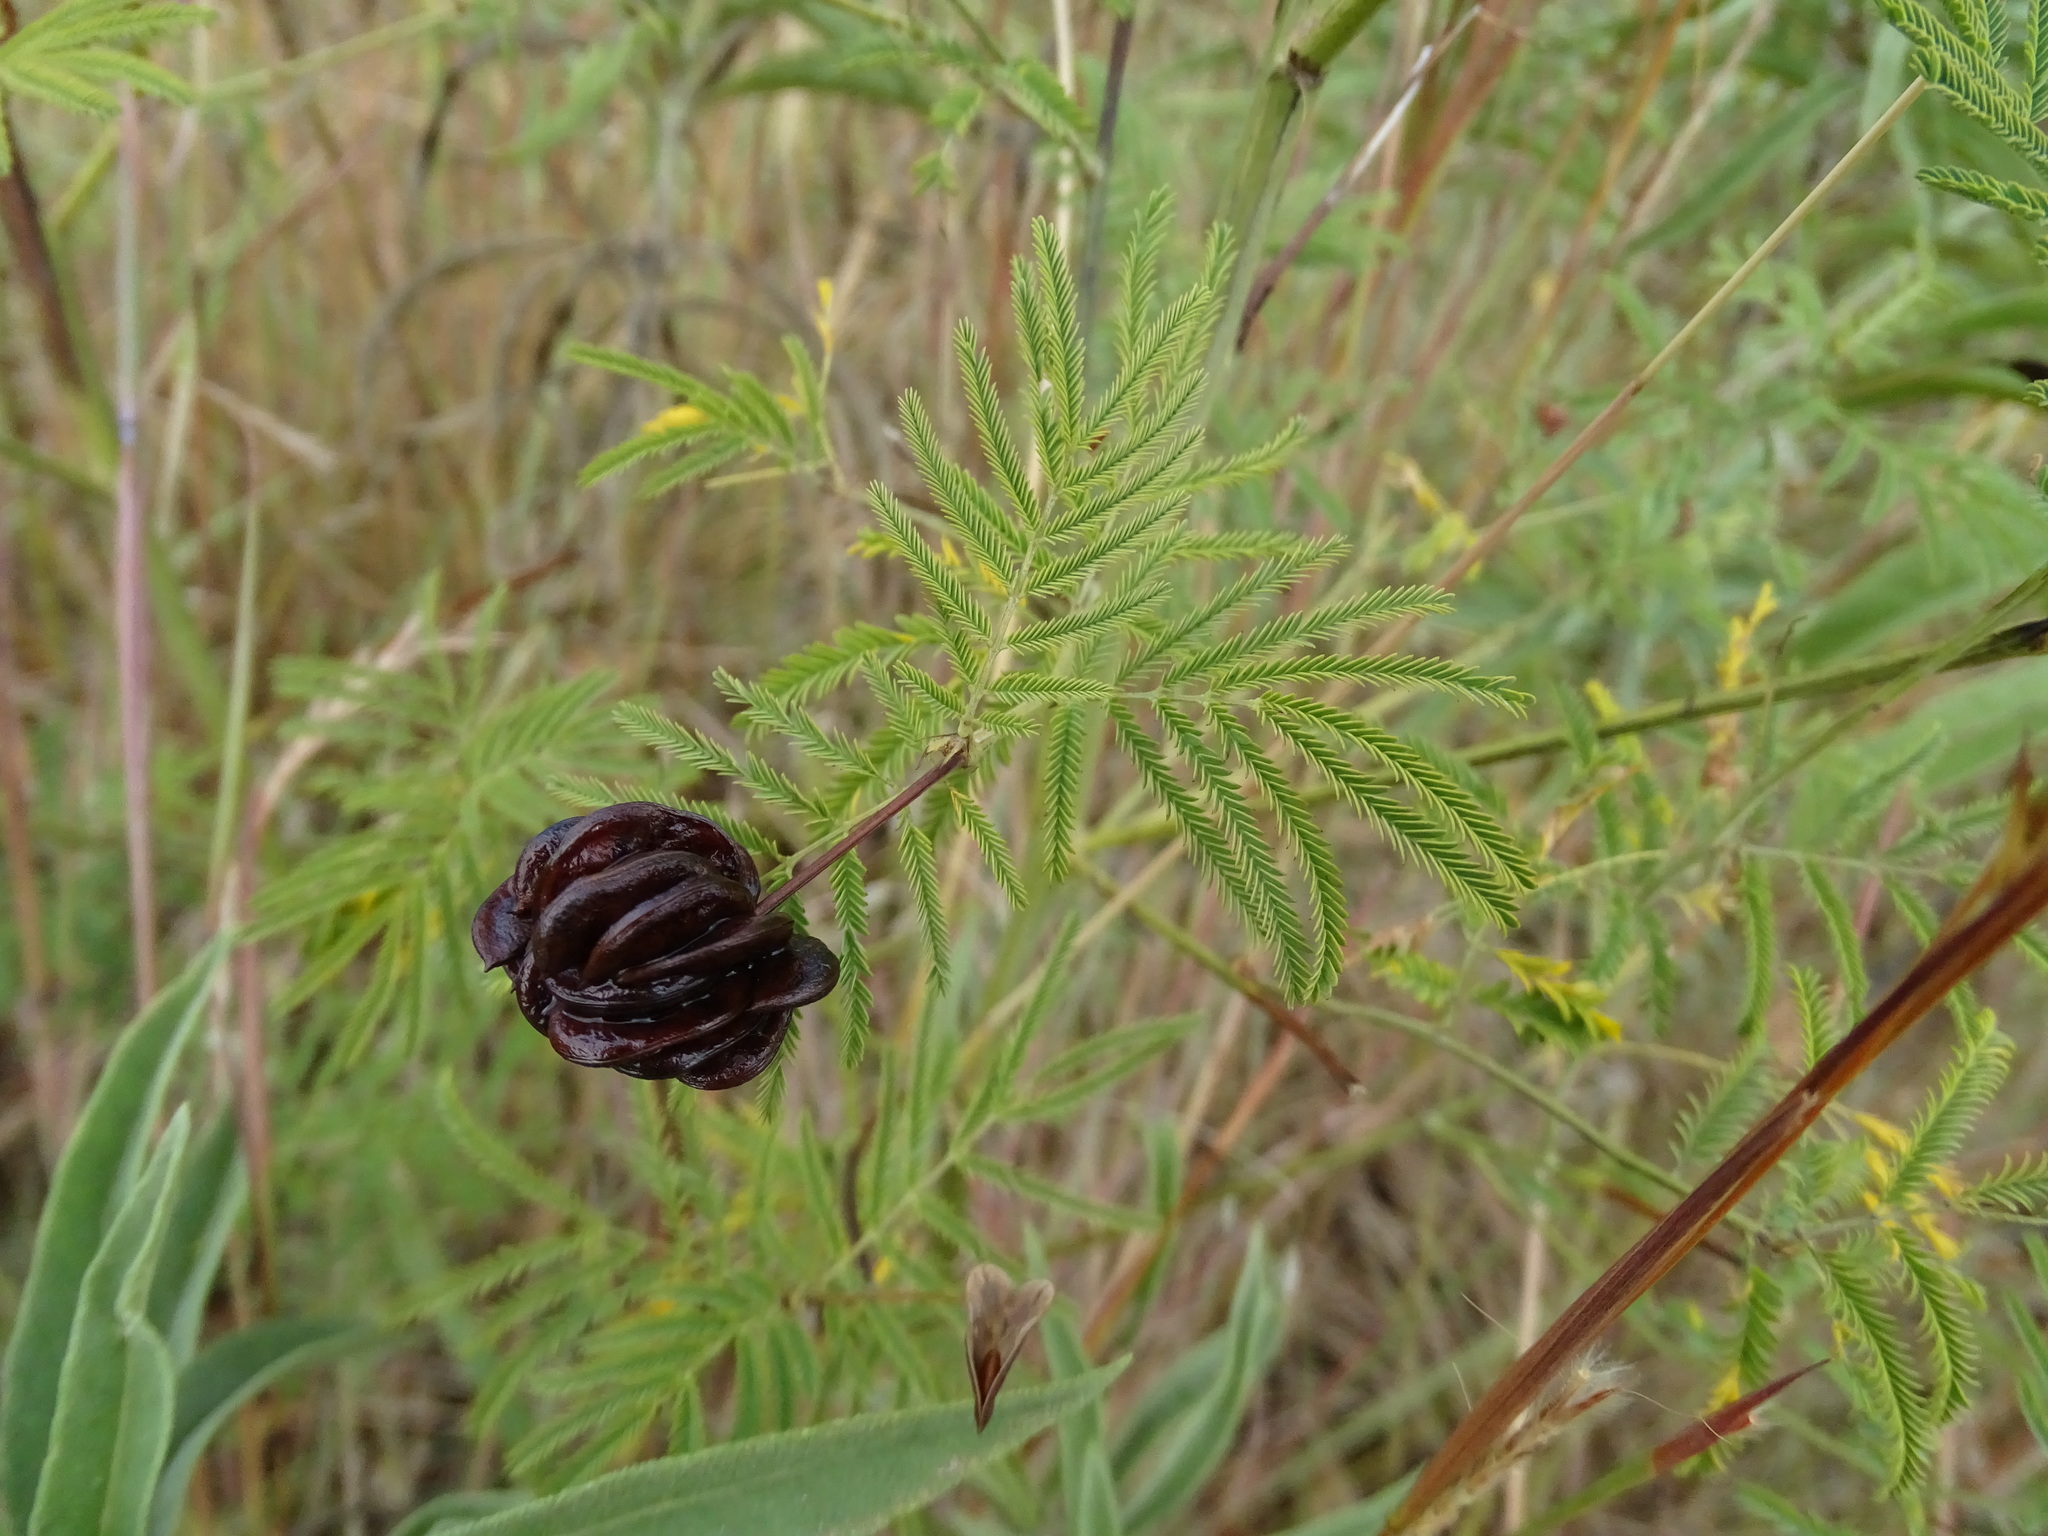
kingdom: Plantae
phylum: Tracheophyta
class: Magnoliopsida
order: Fabales
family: Fabaceae
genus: Desmanthus
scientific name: Desmanthus illinoensis
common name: Illinois bundle-flower
